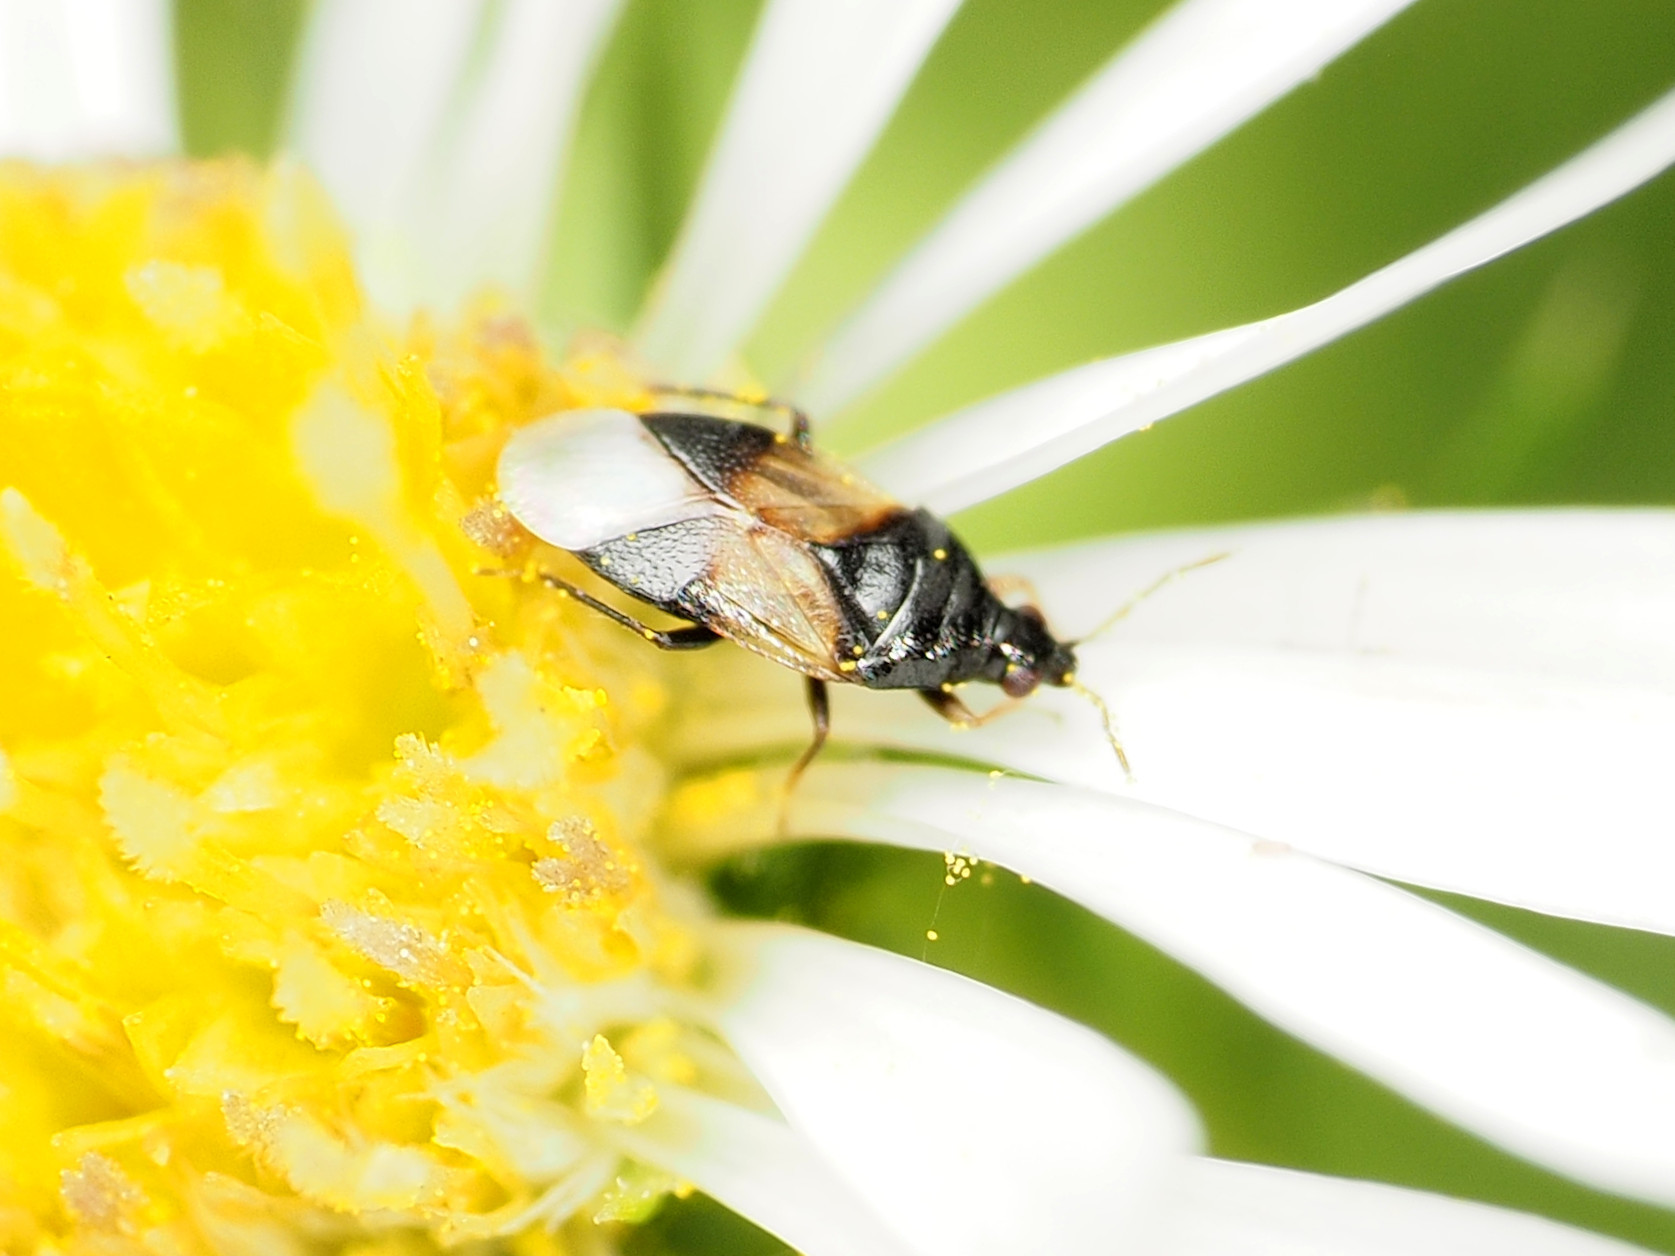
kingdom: Animalia
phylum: Arthropoda
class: Insecta
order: Hemiptera
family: Anthocoridae
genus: Orius
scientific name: Orius insidiosus
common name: Insidious flower bug
